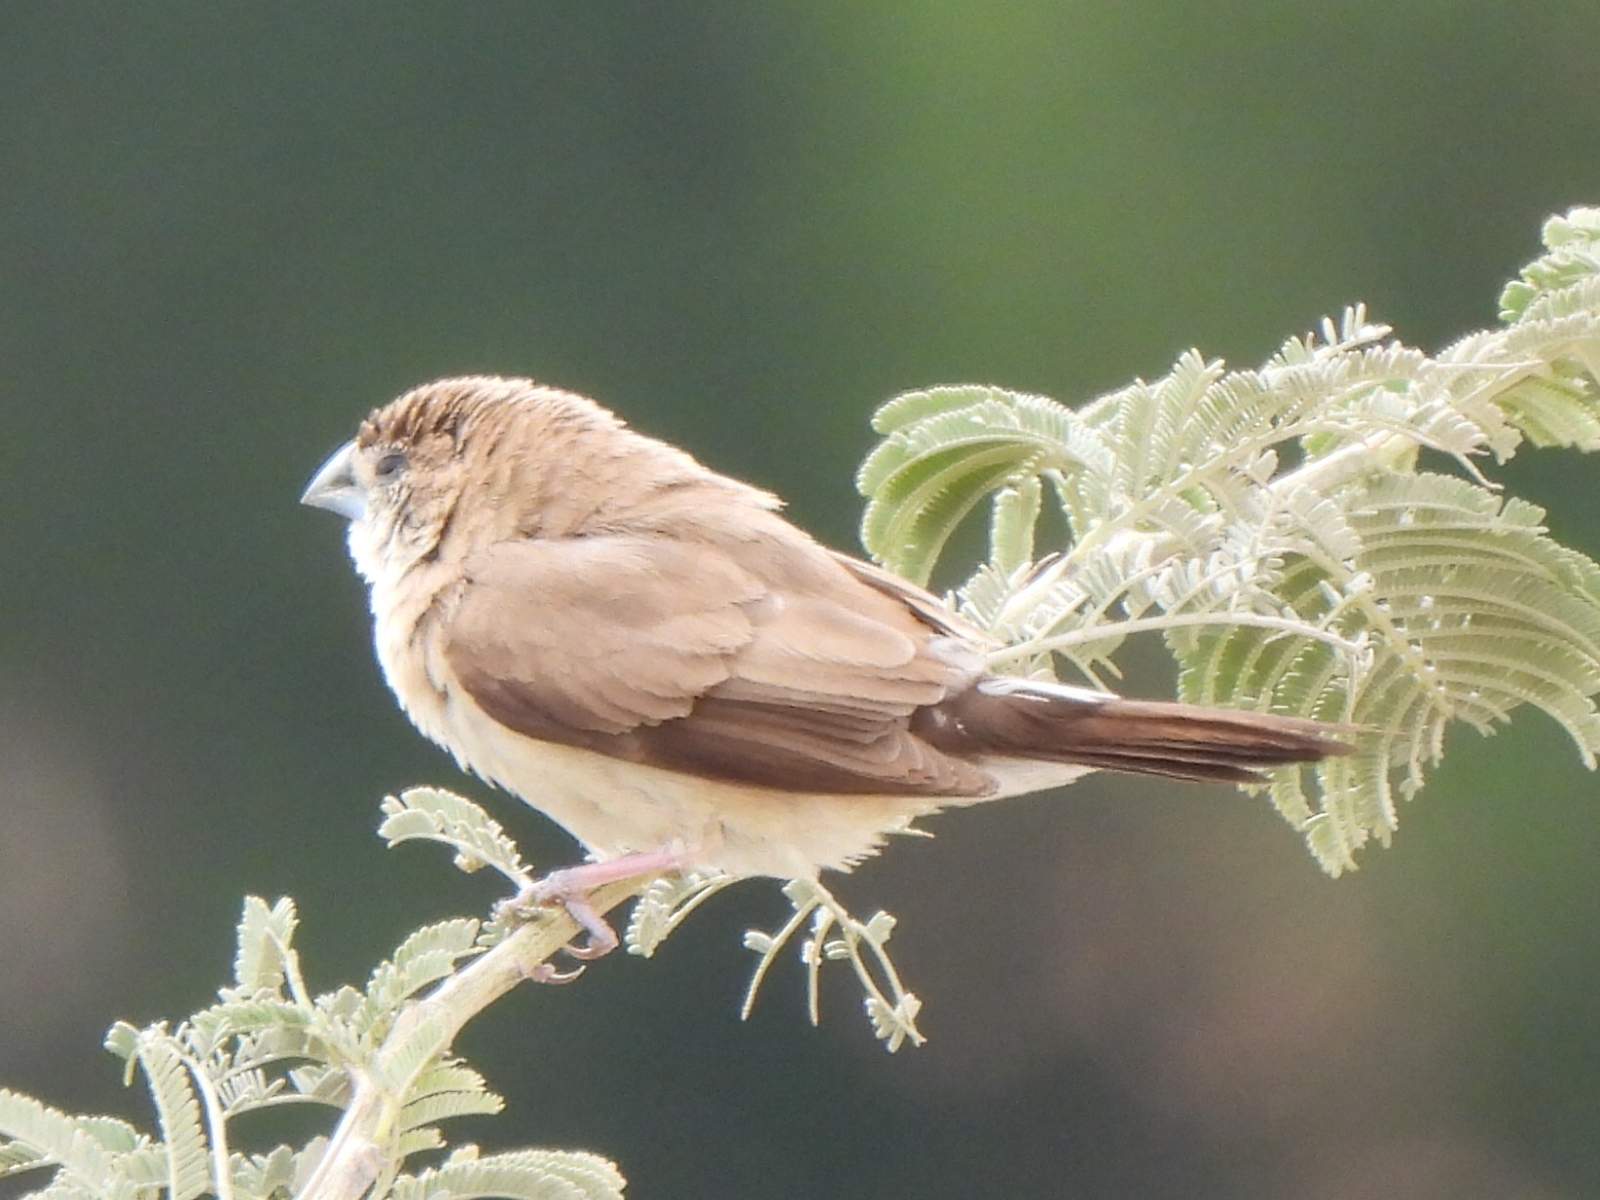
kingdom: Animalia
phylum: Chordata
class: Aves
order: Passeriformes
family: Estrildidae
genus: Euodice
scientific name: Euodice malabarica
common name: Indian silverbill
